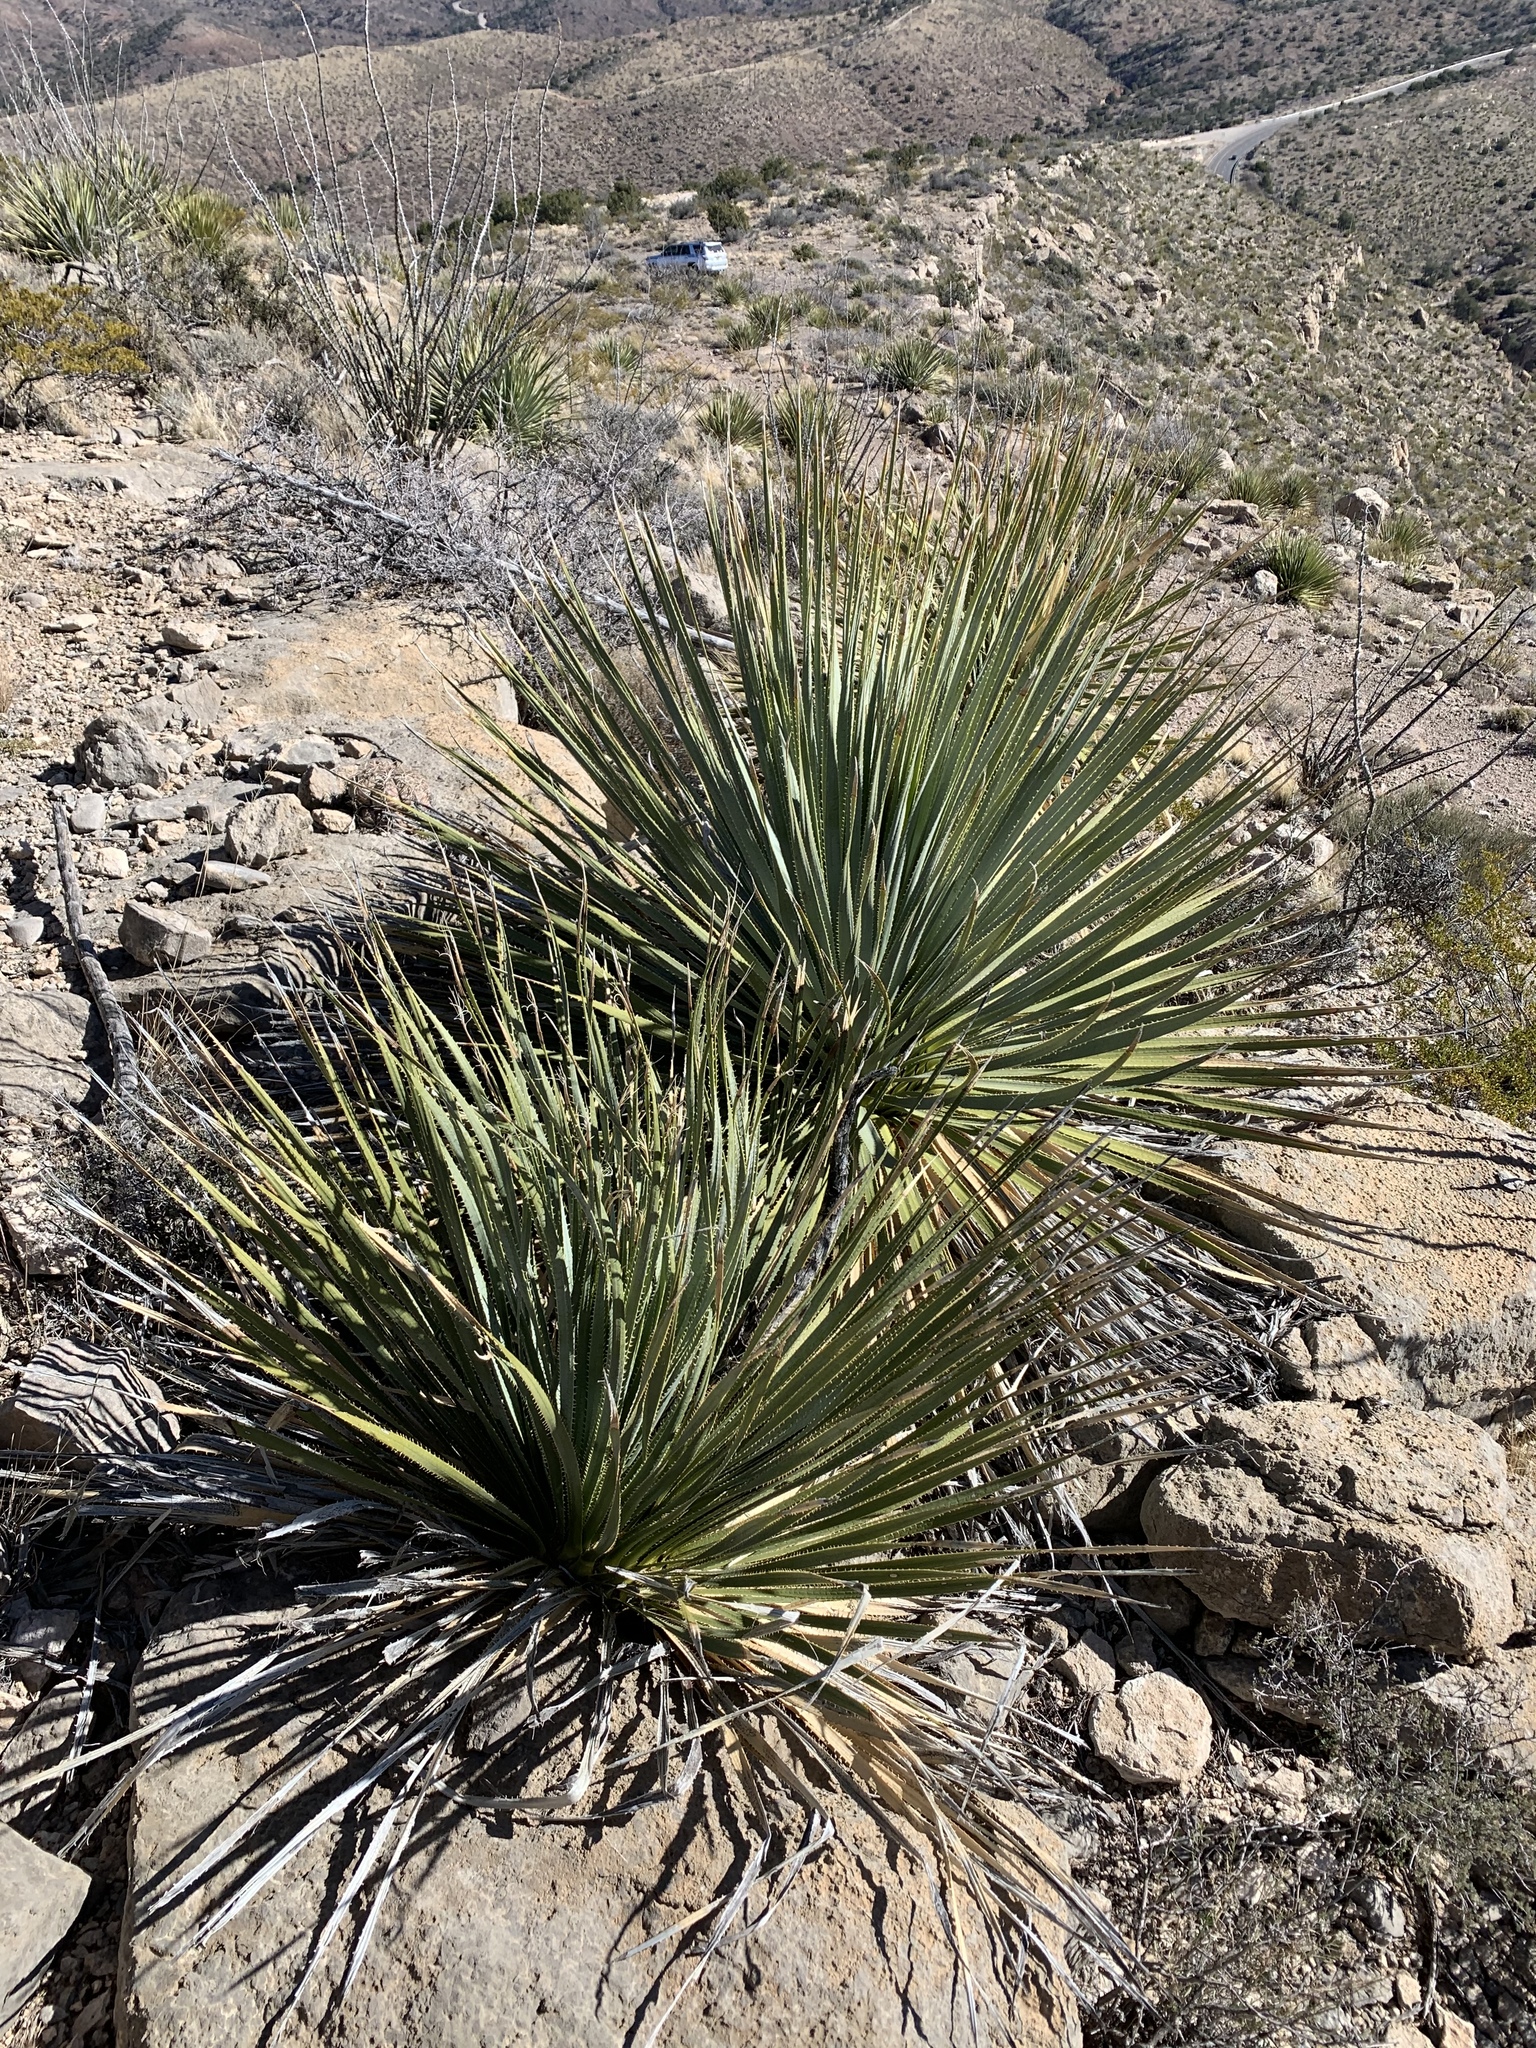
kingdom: Plantae
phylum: Tracheophyta
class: Liliopsida
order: Asparagales
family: Asparagaceae
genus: Dasylirion
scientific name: Dasylirion wheeleri
